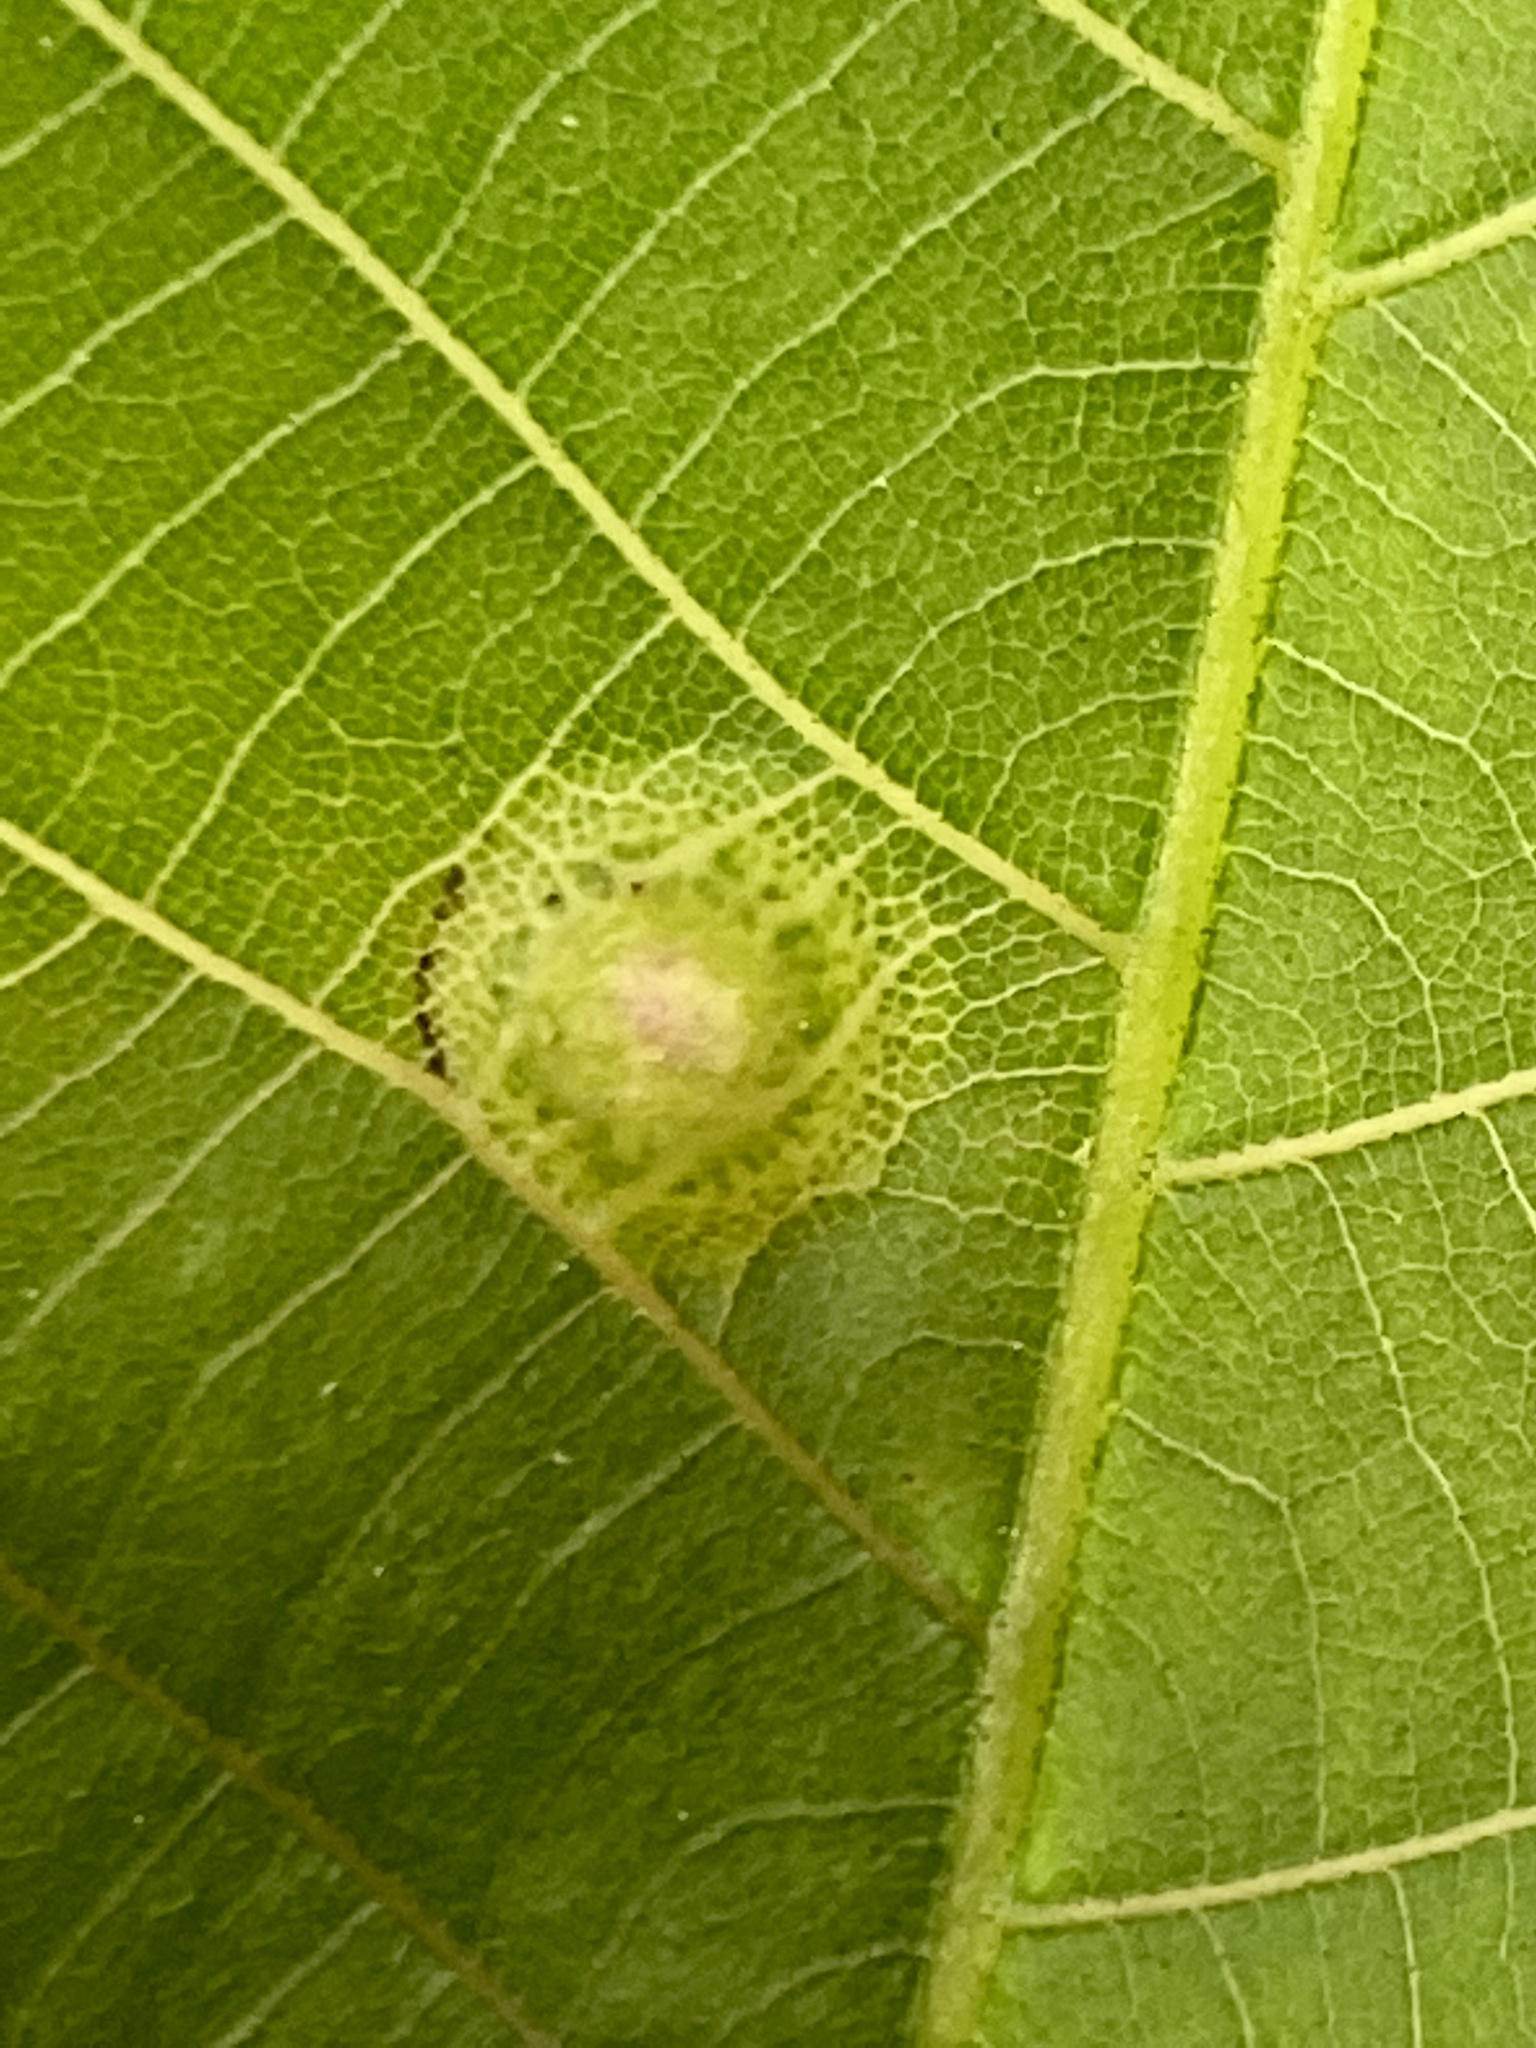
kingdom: Animalia
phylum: Arthropoda
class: Insecta
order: Hemiptera
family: Phylloxeridae
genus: Phylloxera
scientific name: Phylloxera foveola
